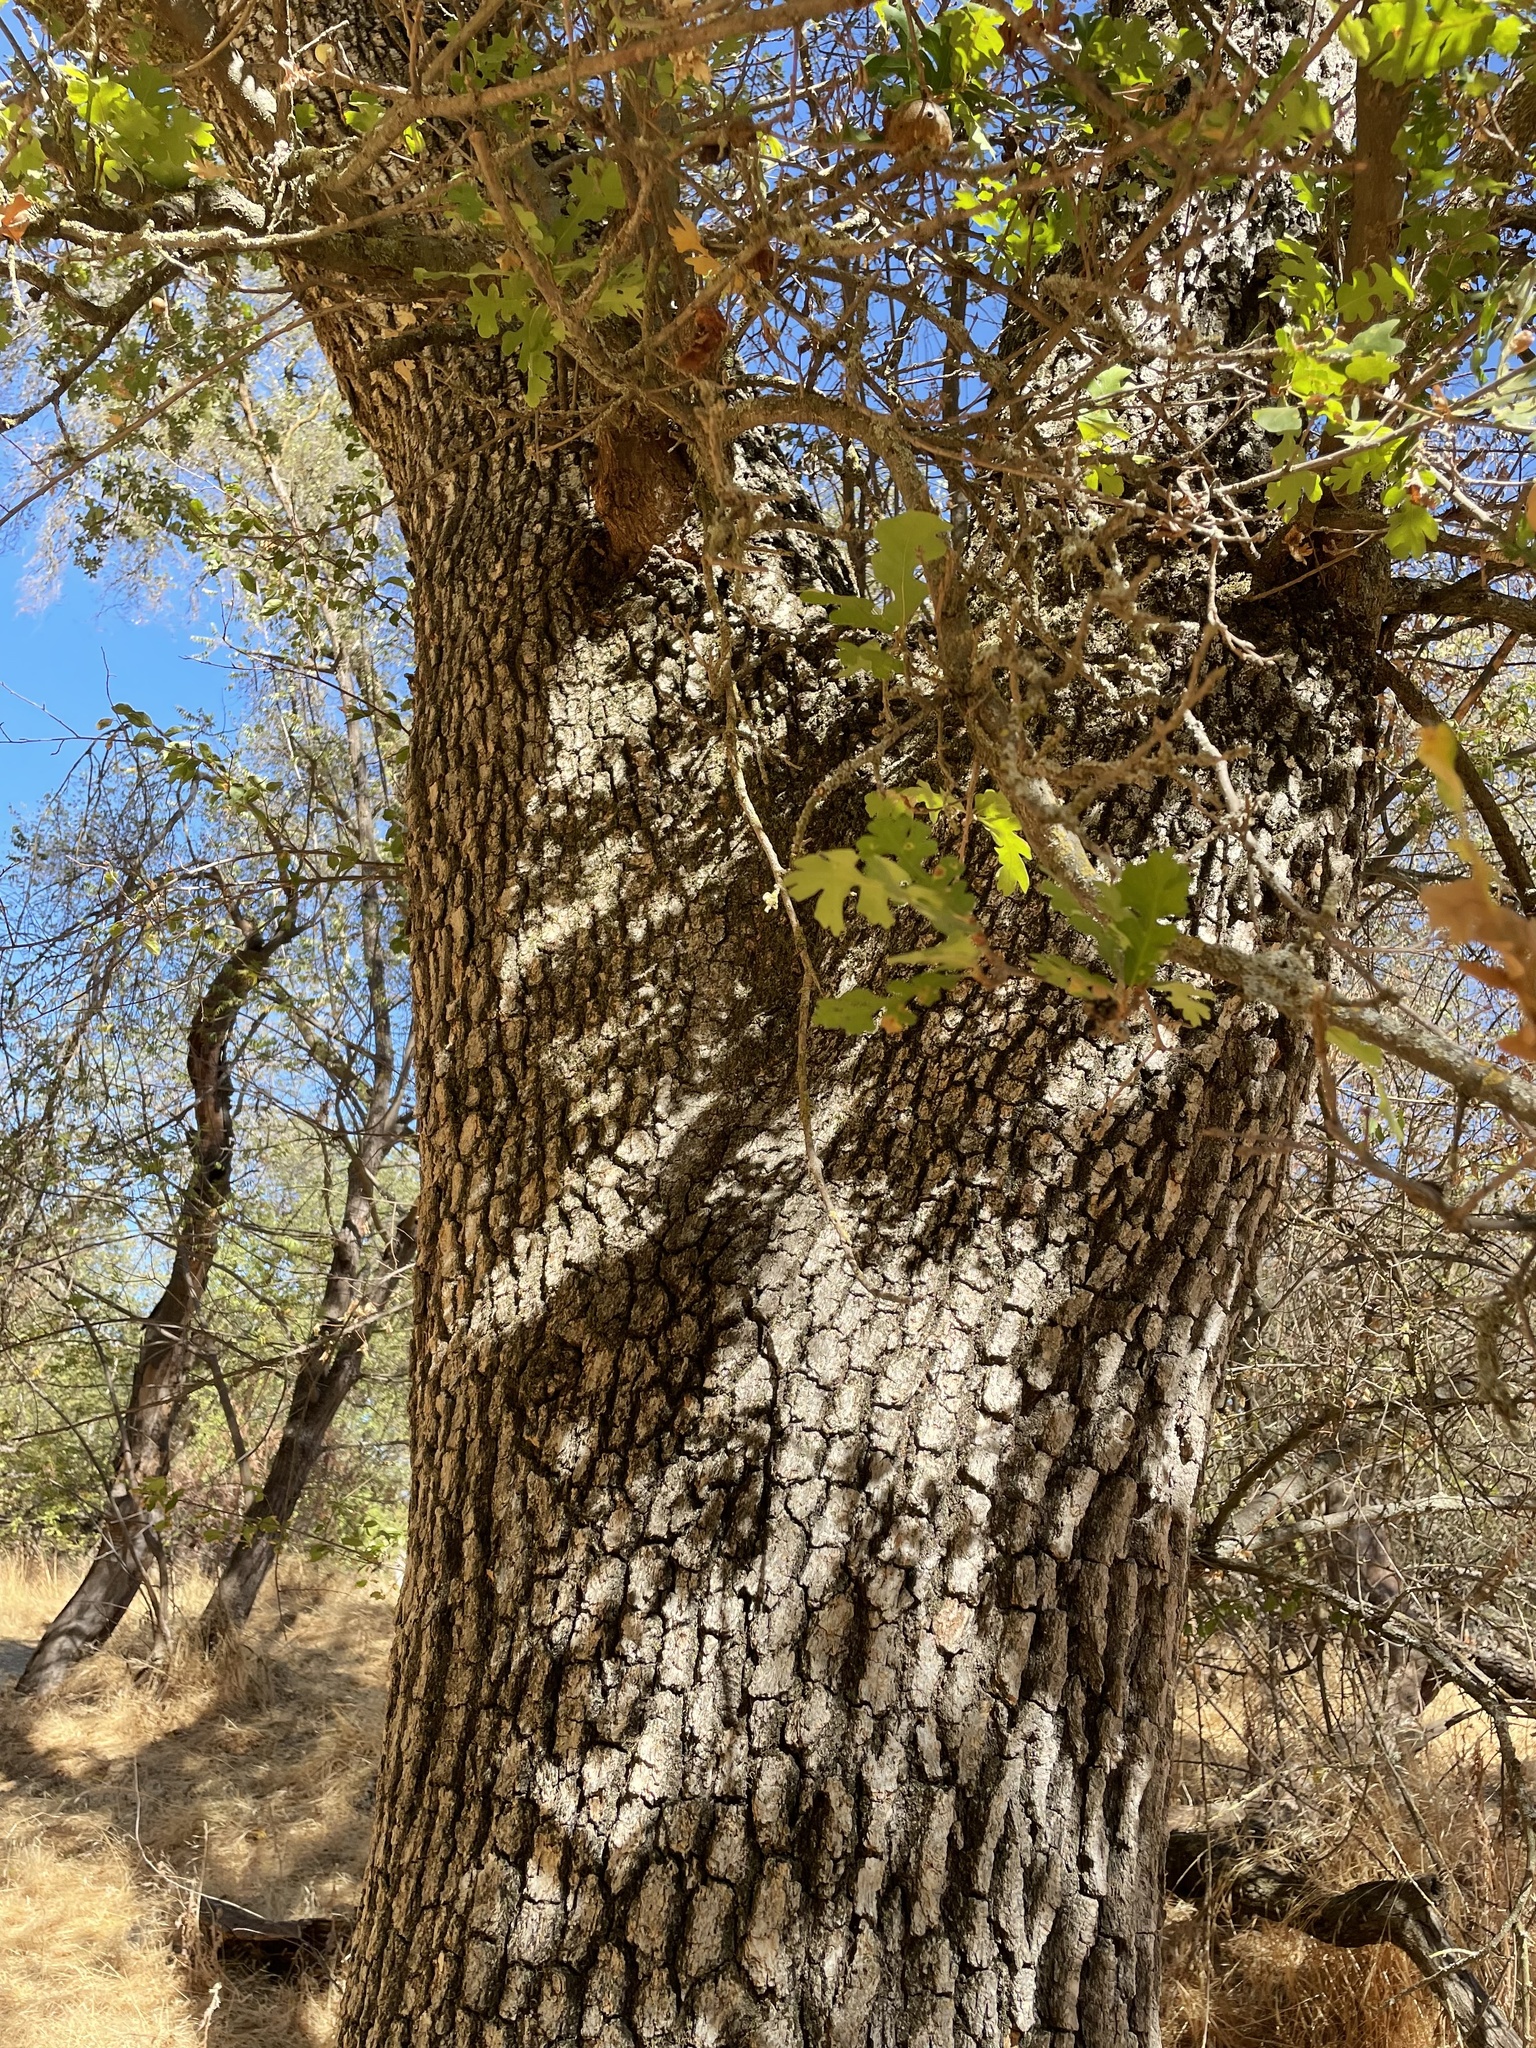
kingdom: Plantae
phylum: Tracheophyta
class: Magnoliopsida
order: Fagales
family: Fagaceae
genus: Quercus
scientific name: Quercus lobata
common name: Valley oak
